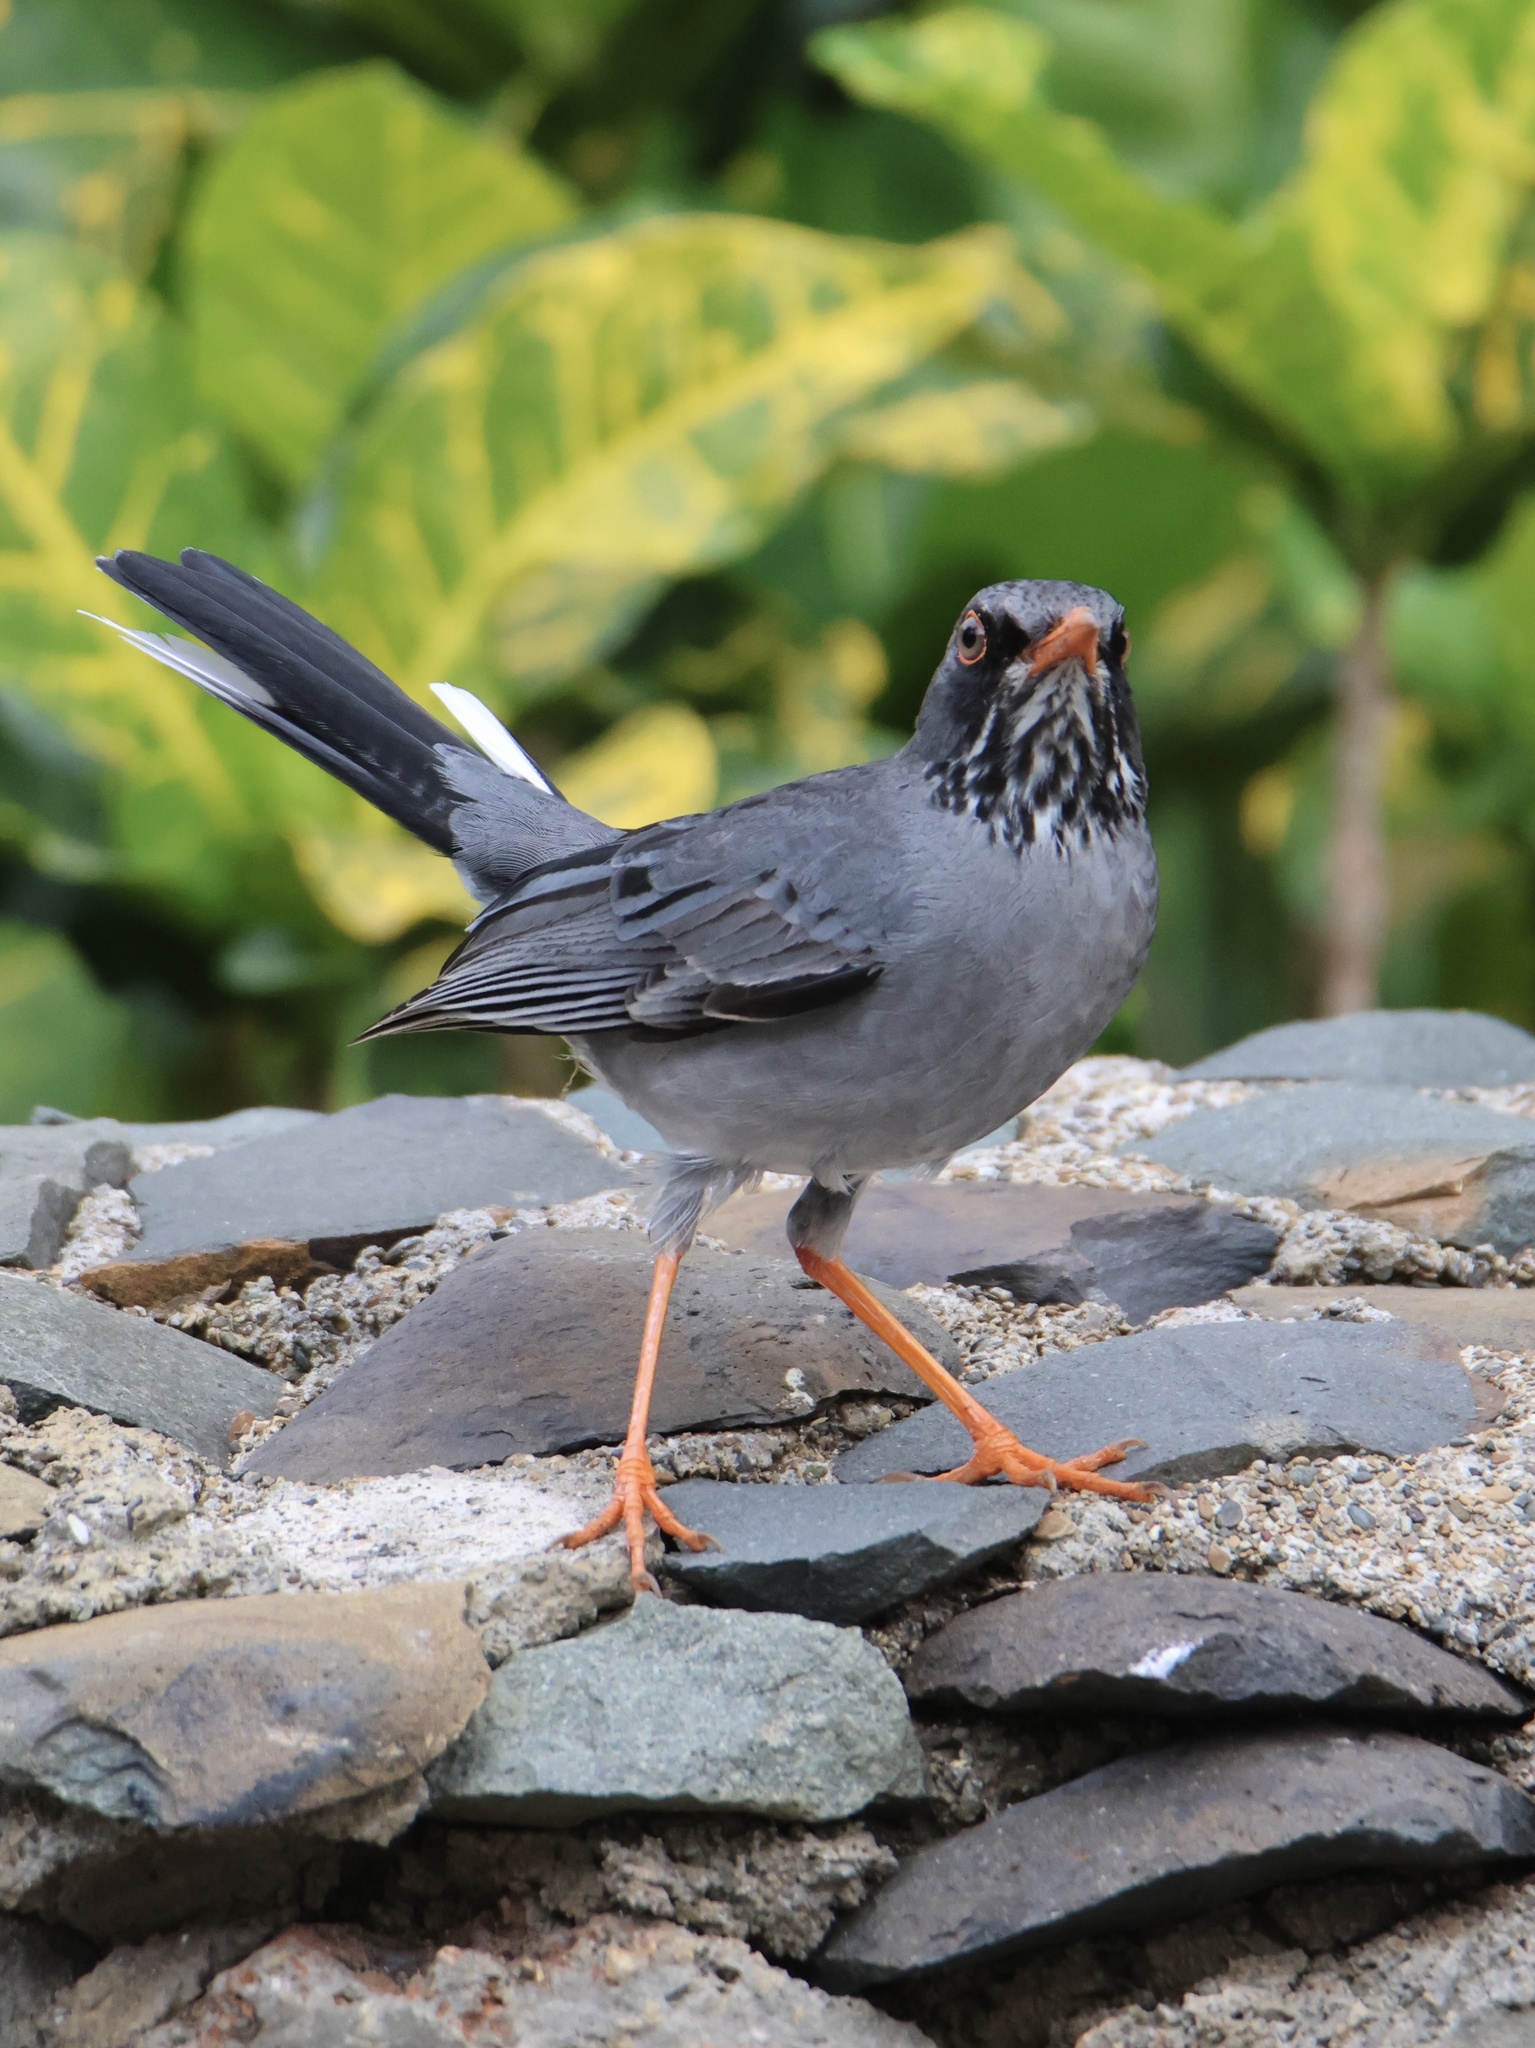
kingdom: Animalia
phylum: Chordata
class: Aves
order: Passeriformes
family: Turdidae
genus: Turdus
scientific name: Turdus plumbeus
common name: Red-legged thrush
